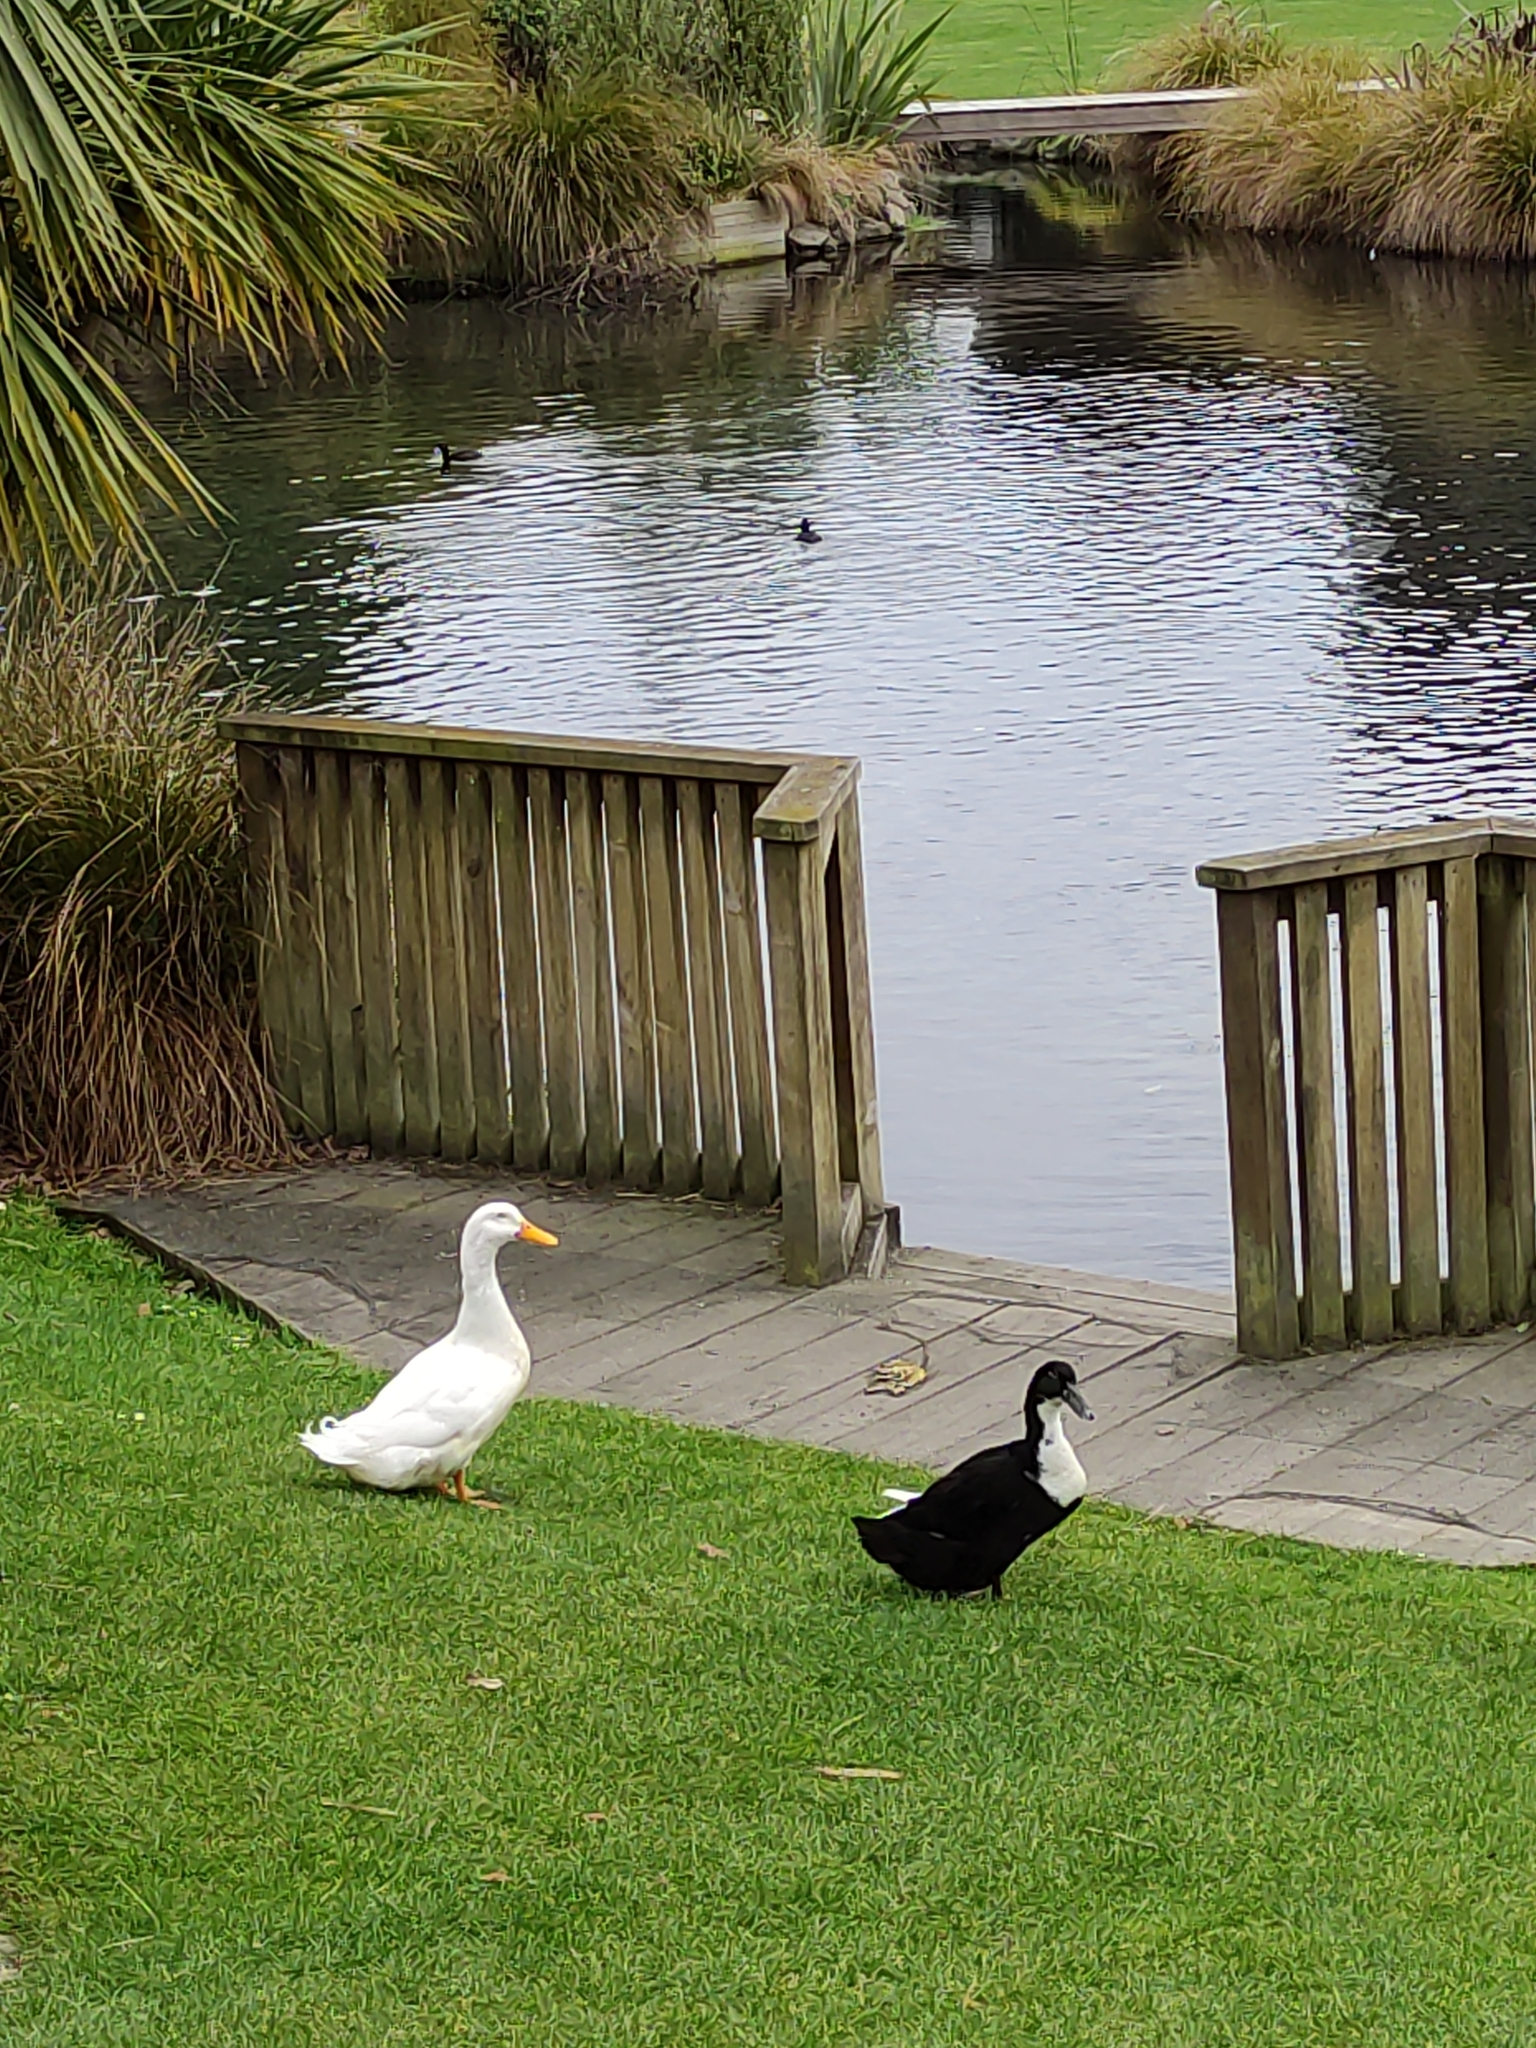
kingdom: Animalia
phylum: Chordata
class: Aves
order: Anseriformes
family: Anatidae
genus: Anas
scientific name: Anas platyrhynchos
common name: Mallard
